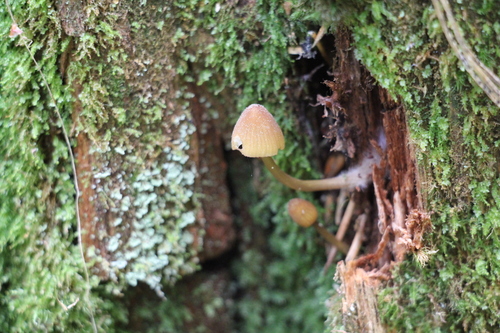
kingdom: Fungi
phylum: Basidiomycota
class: Agaricomycetes
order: Agaricales
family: Mycenaceae
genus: Mycena
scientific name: Mycena viridimarginata
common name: Olive edge bonnet
